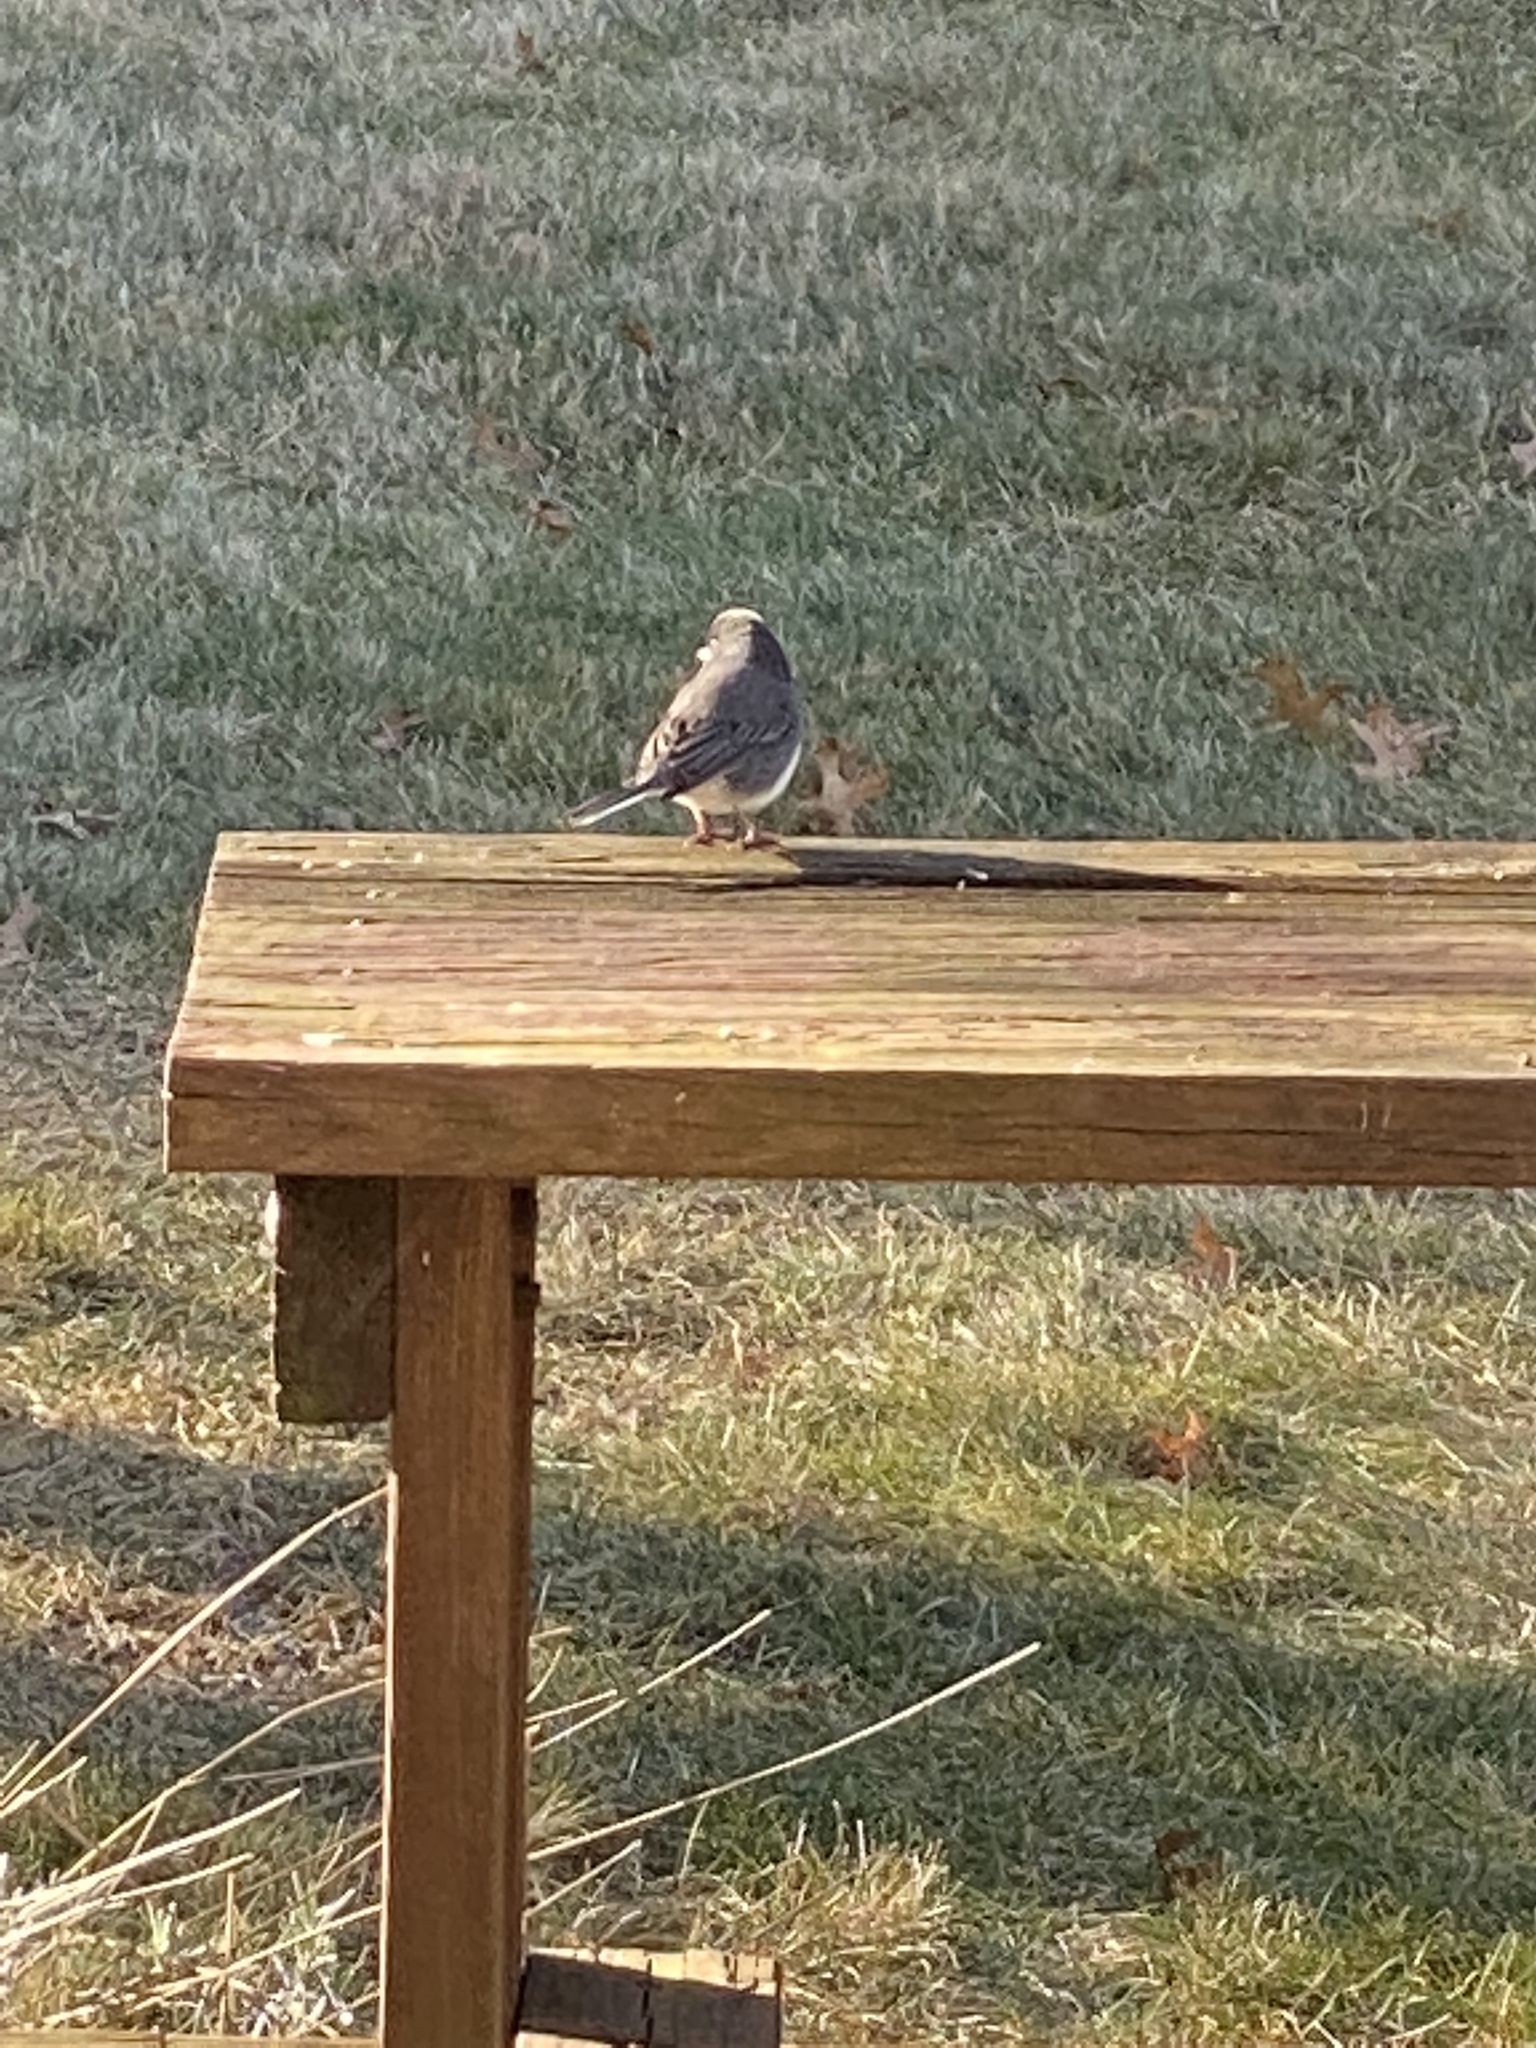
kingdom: Animalia
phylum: Chordata
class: Aves
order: Passeriformes
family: Passerellidae
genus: Junco
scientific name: Junco hyemalis
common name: Dark-eyed junco
